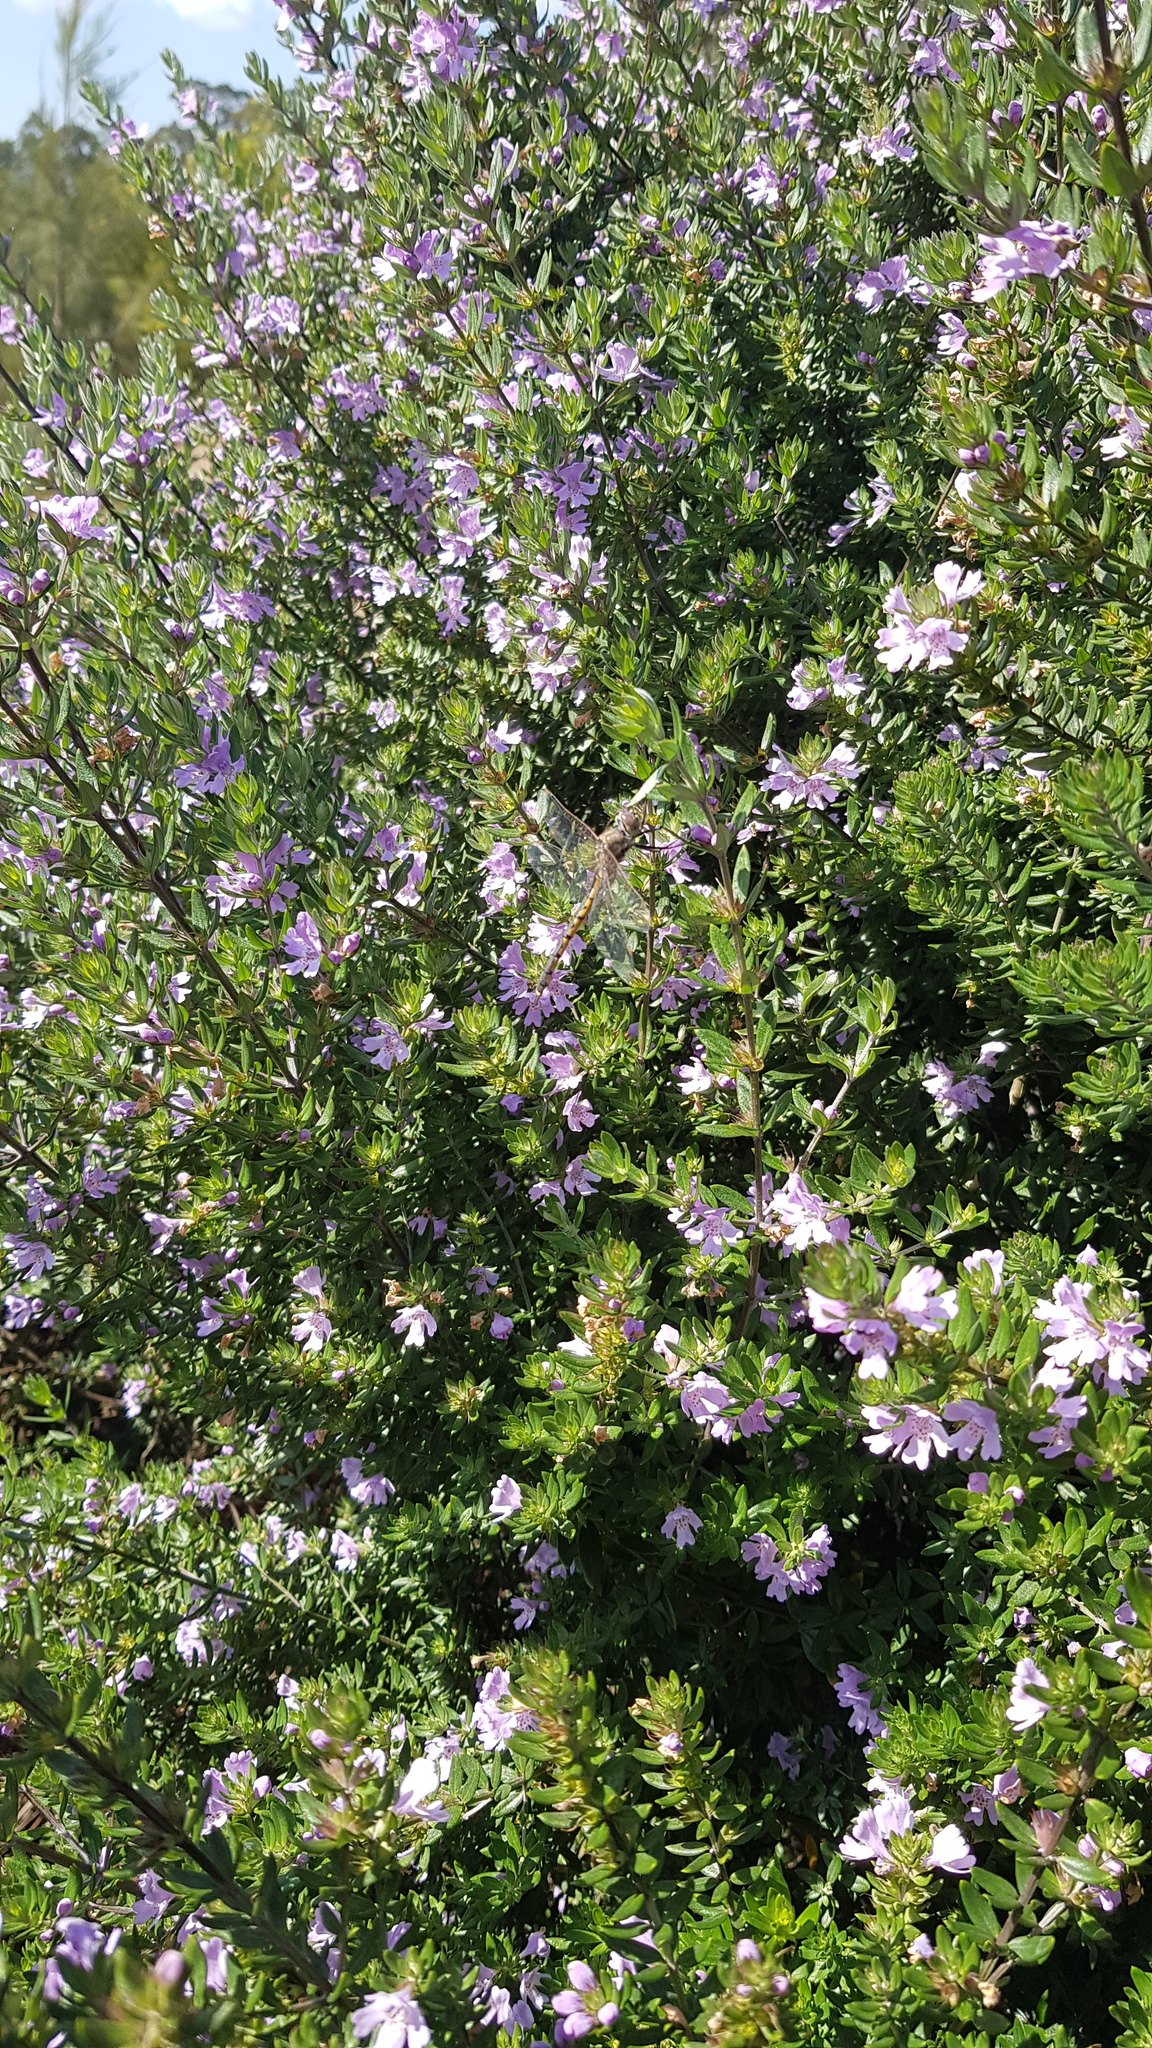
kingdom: Animalia
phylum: Arthropoda
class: Insecta
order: Odonata
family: Corduliidae
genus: Hemicordulia
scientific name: Hemicordulia tau
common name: Tau emerald
